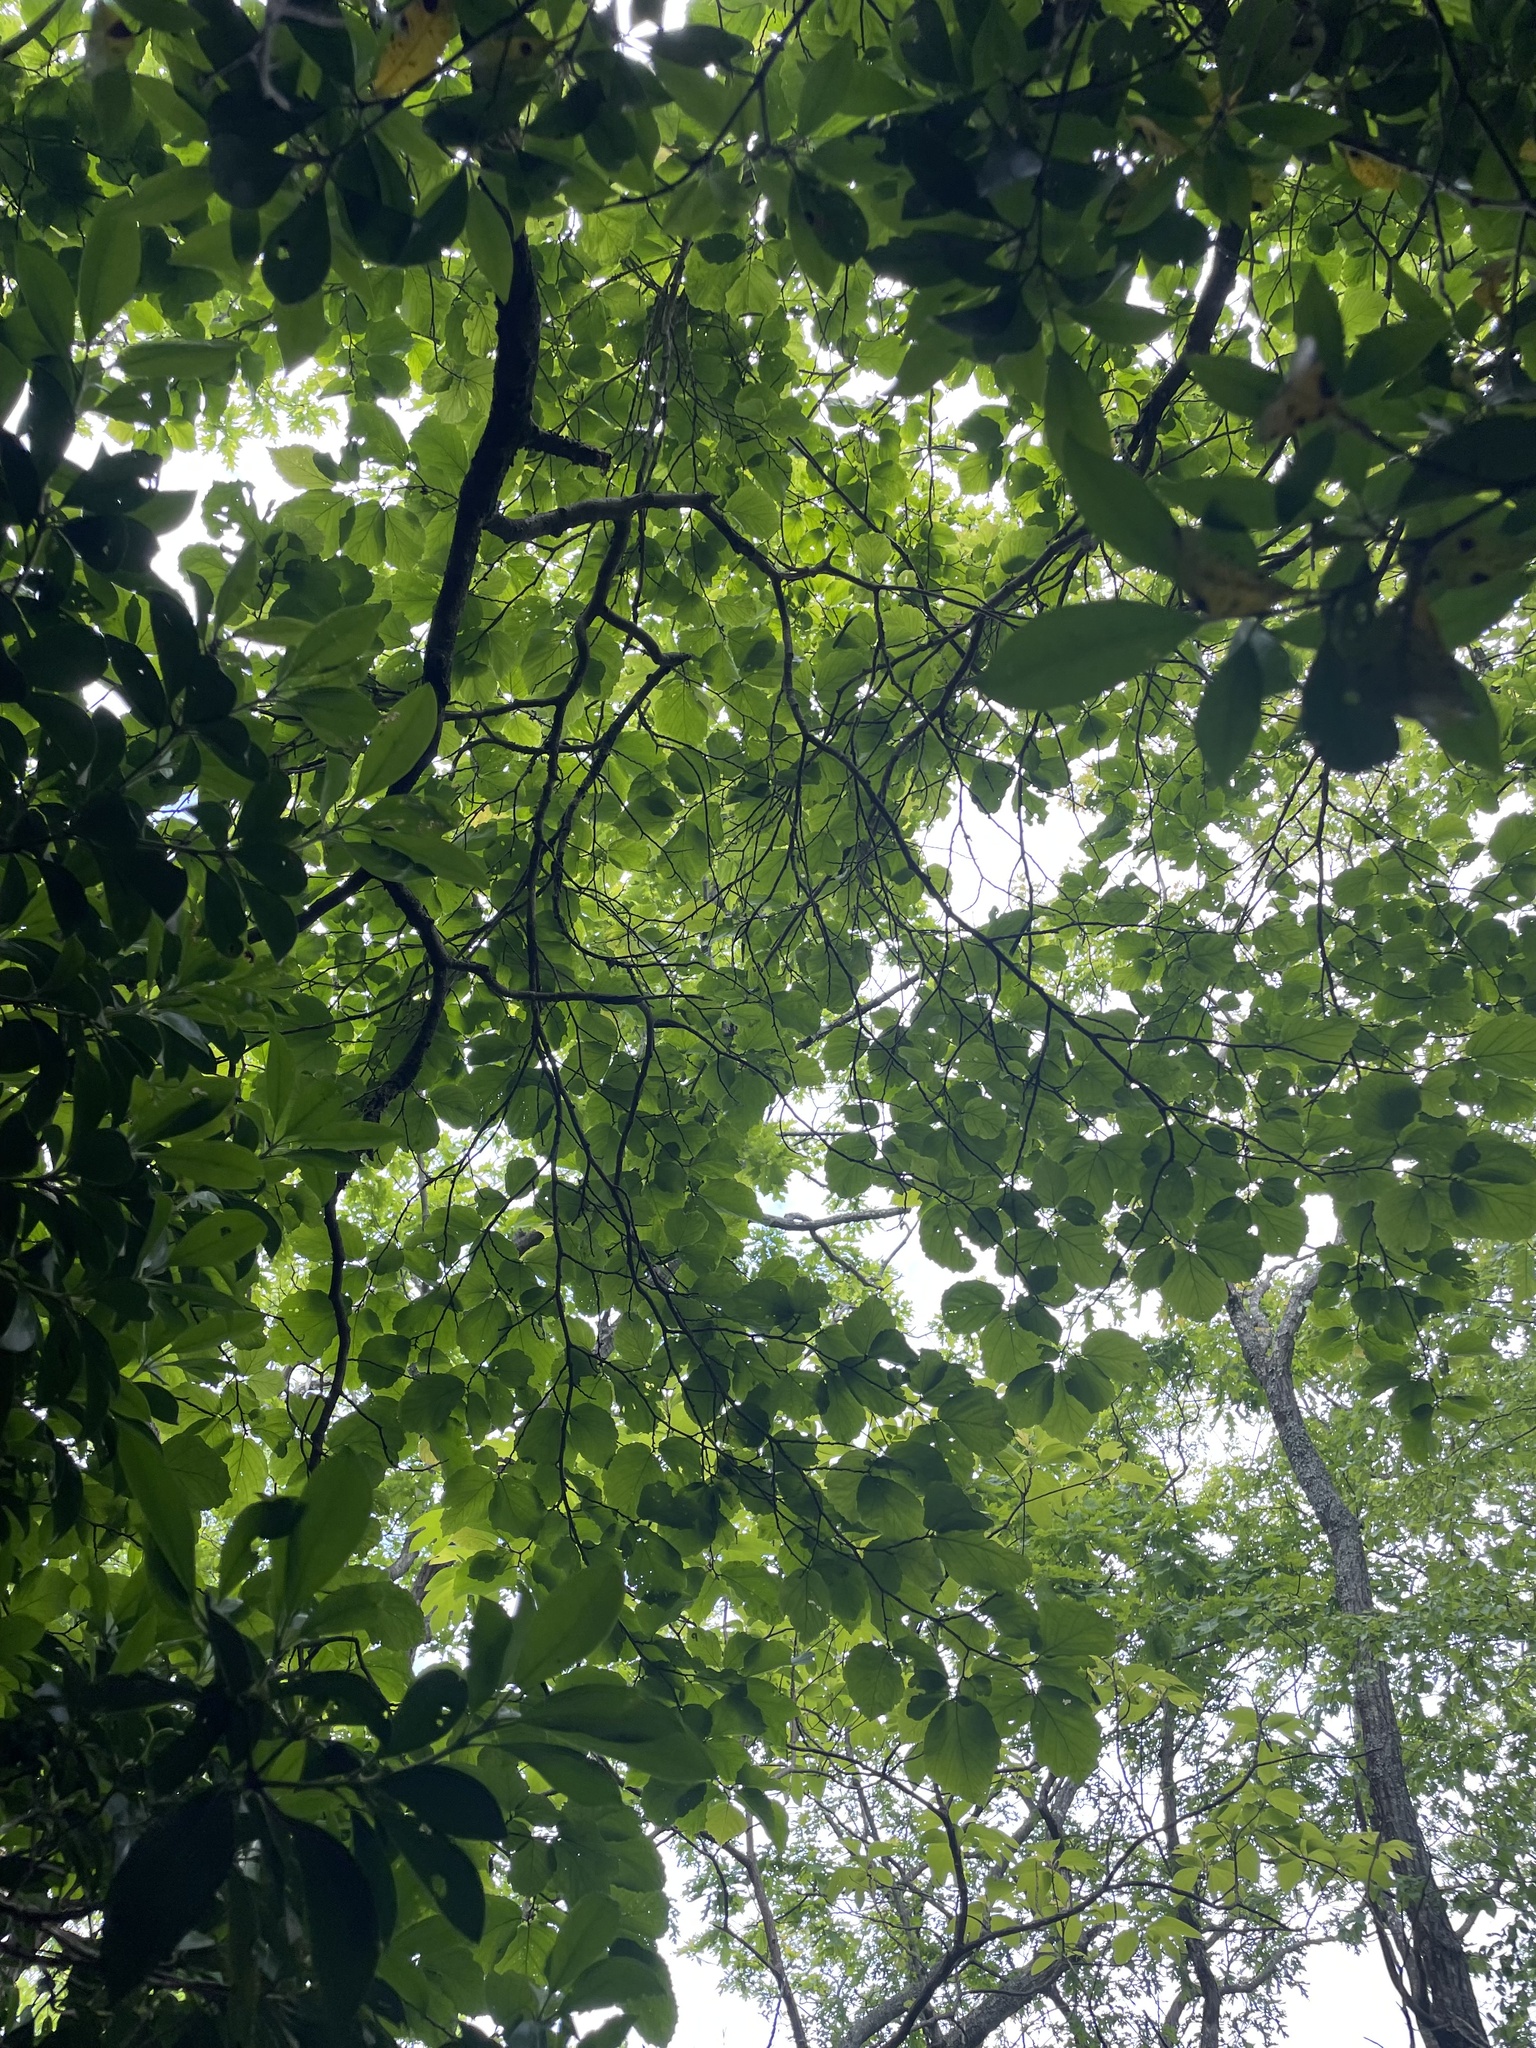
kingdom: Plantae
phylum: Tracheophyta
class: Magnoliopsida
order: Saxifragales
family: Hamamelidaceae
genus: Hamamelis
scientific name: Hamamelis virginiana
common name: Witch-hazel
